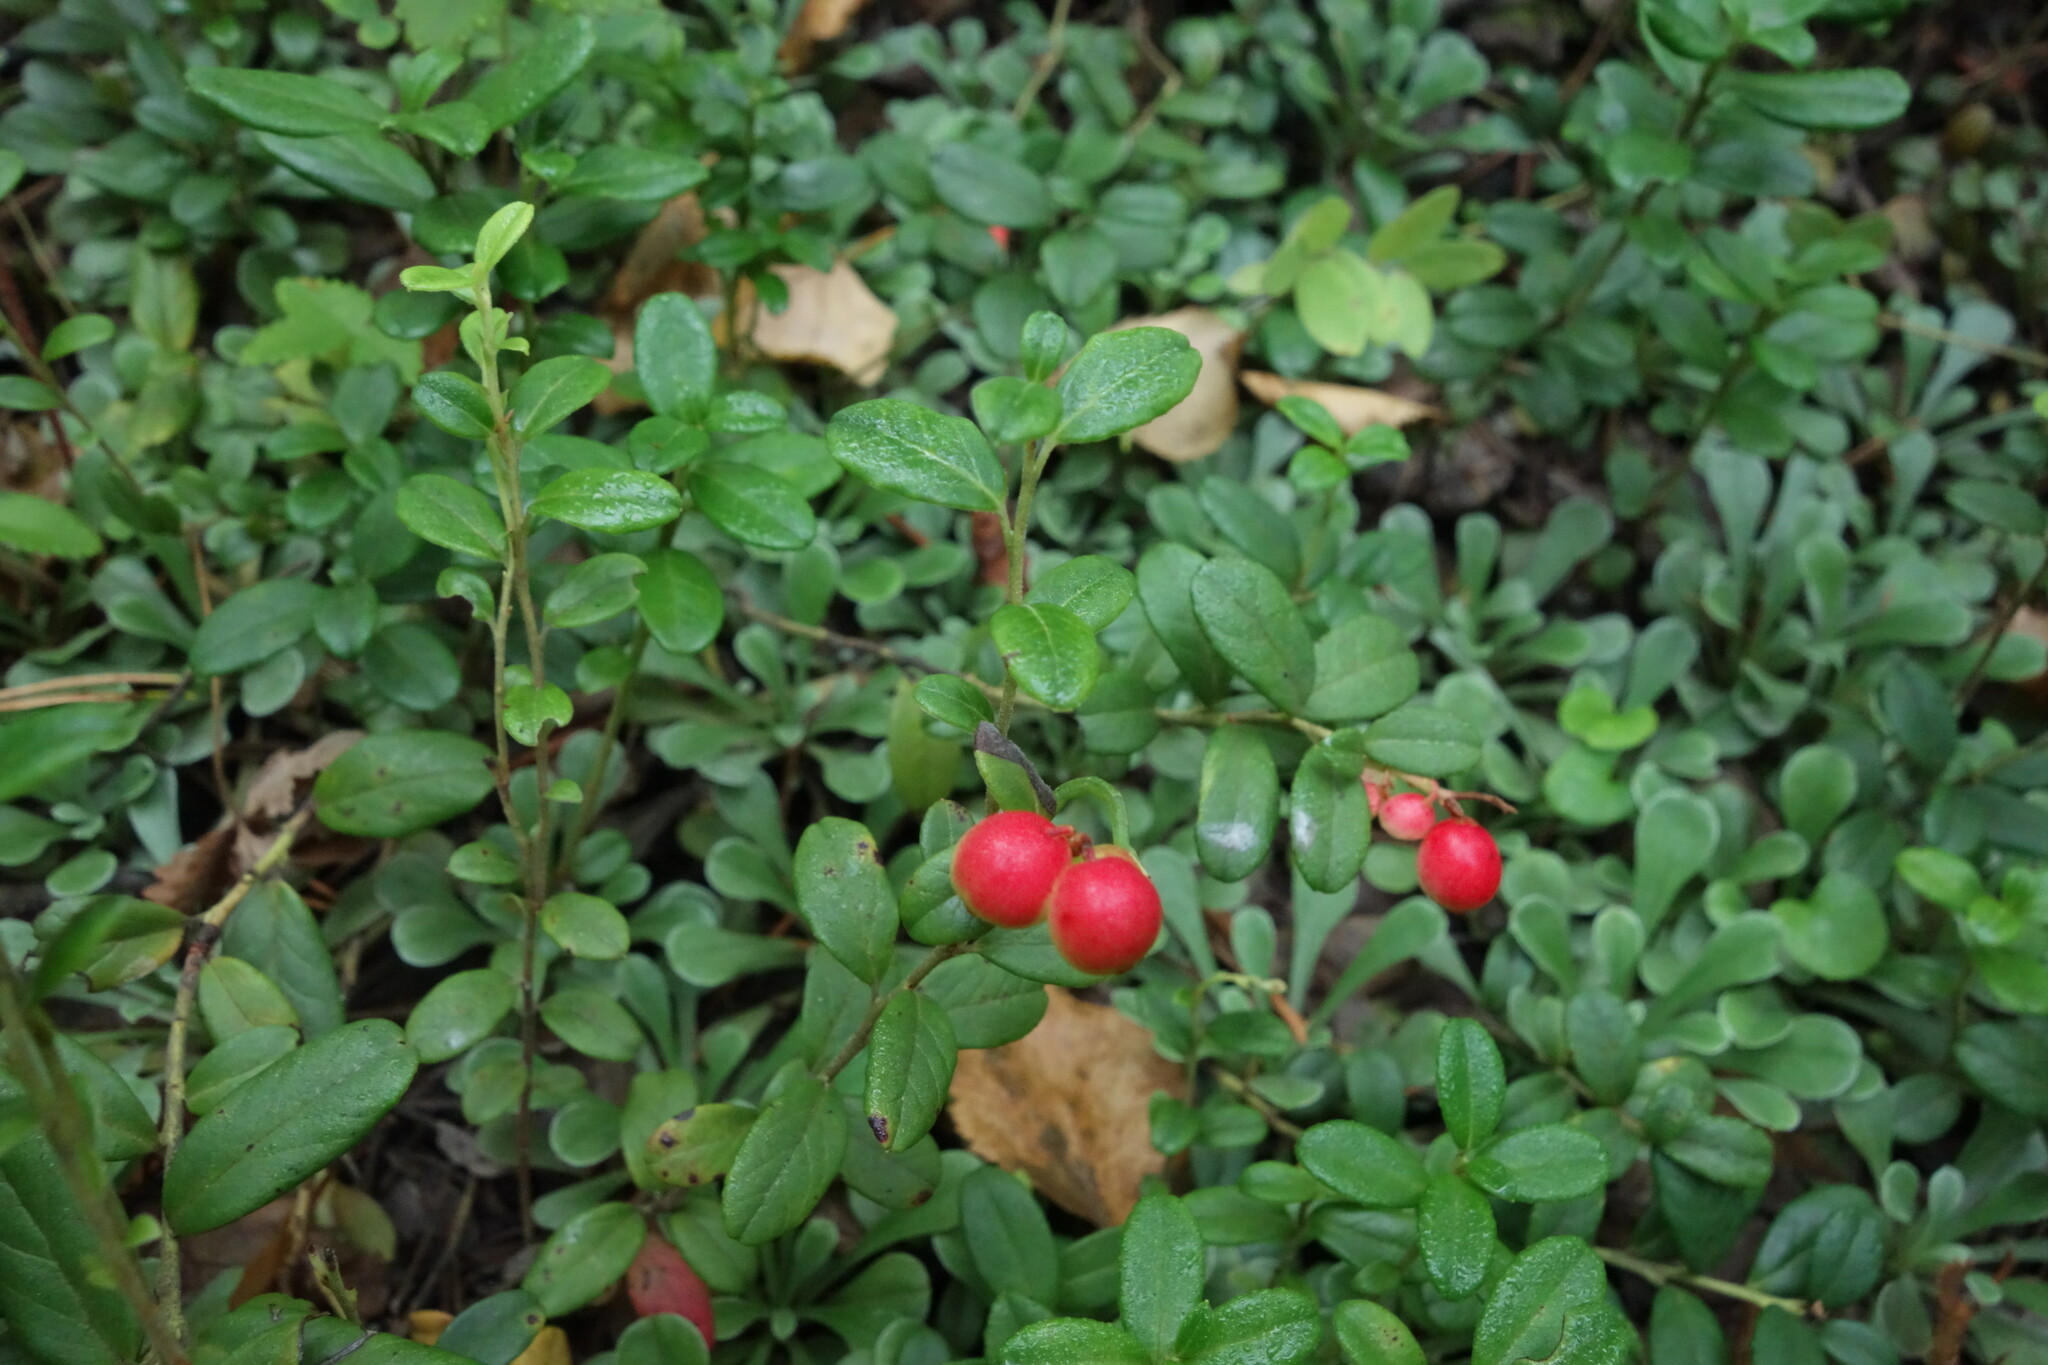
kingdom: Plantae
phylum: Tracheophyta
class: Magnoliopsida
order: Ericales
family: Ericaceae
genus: Vaccinium
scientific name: Vaccinium vitis-idaea
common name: Cowberry
